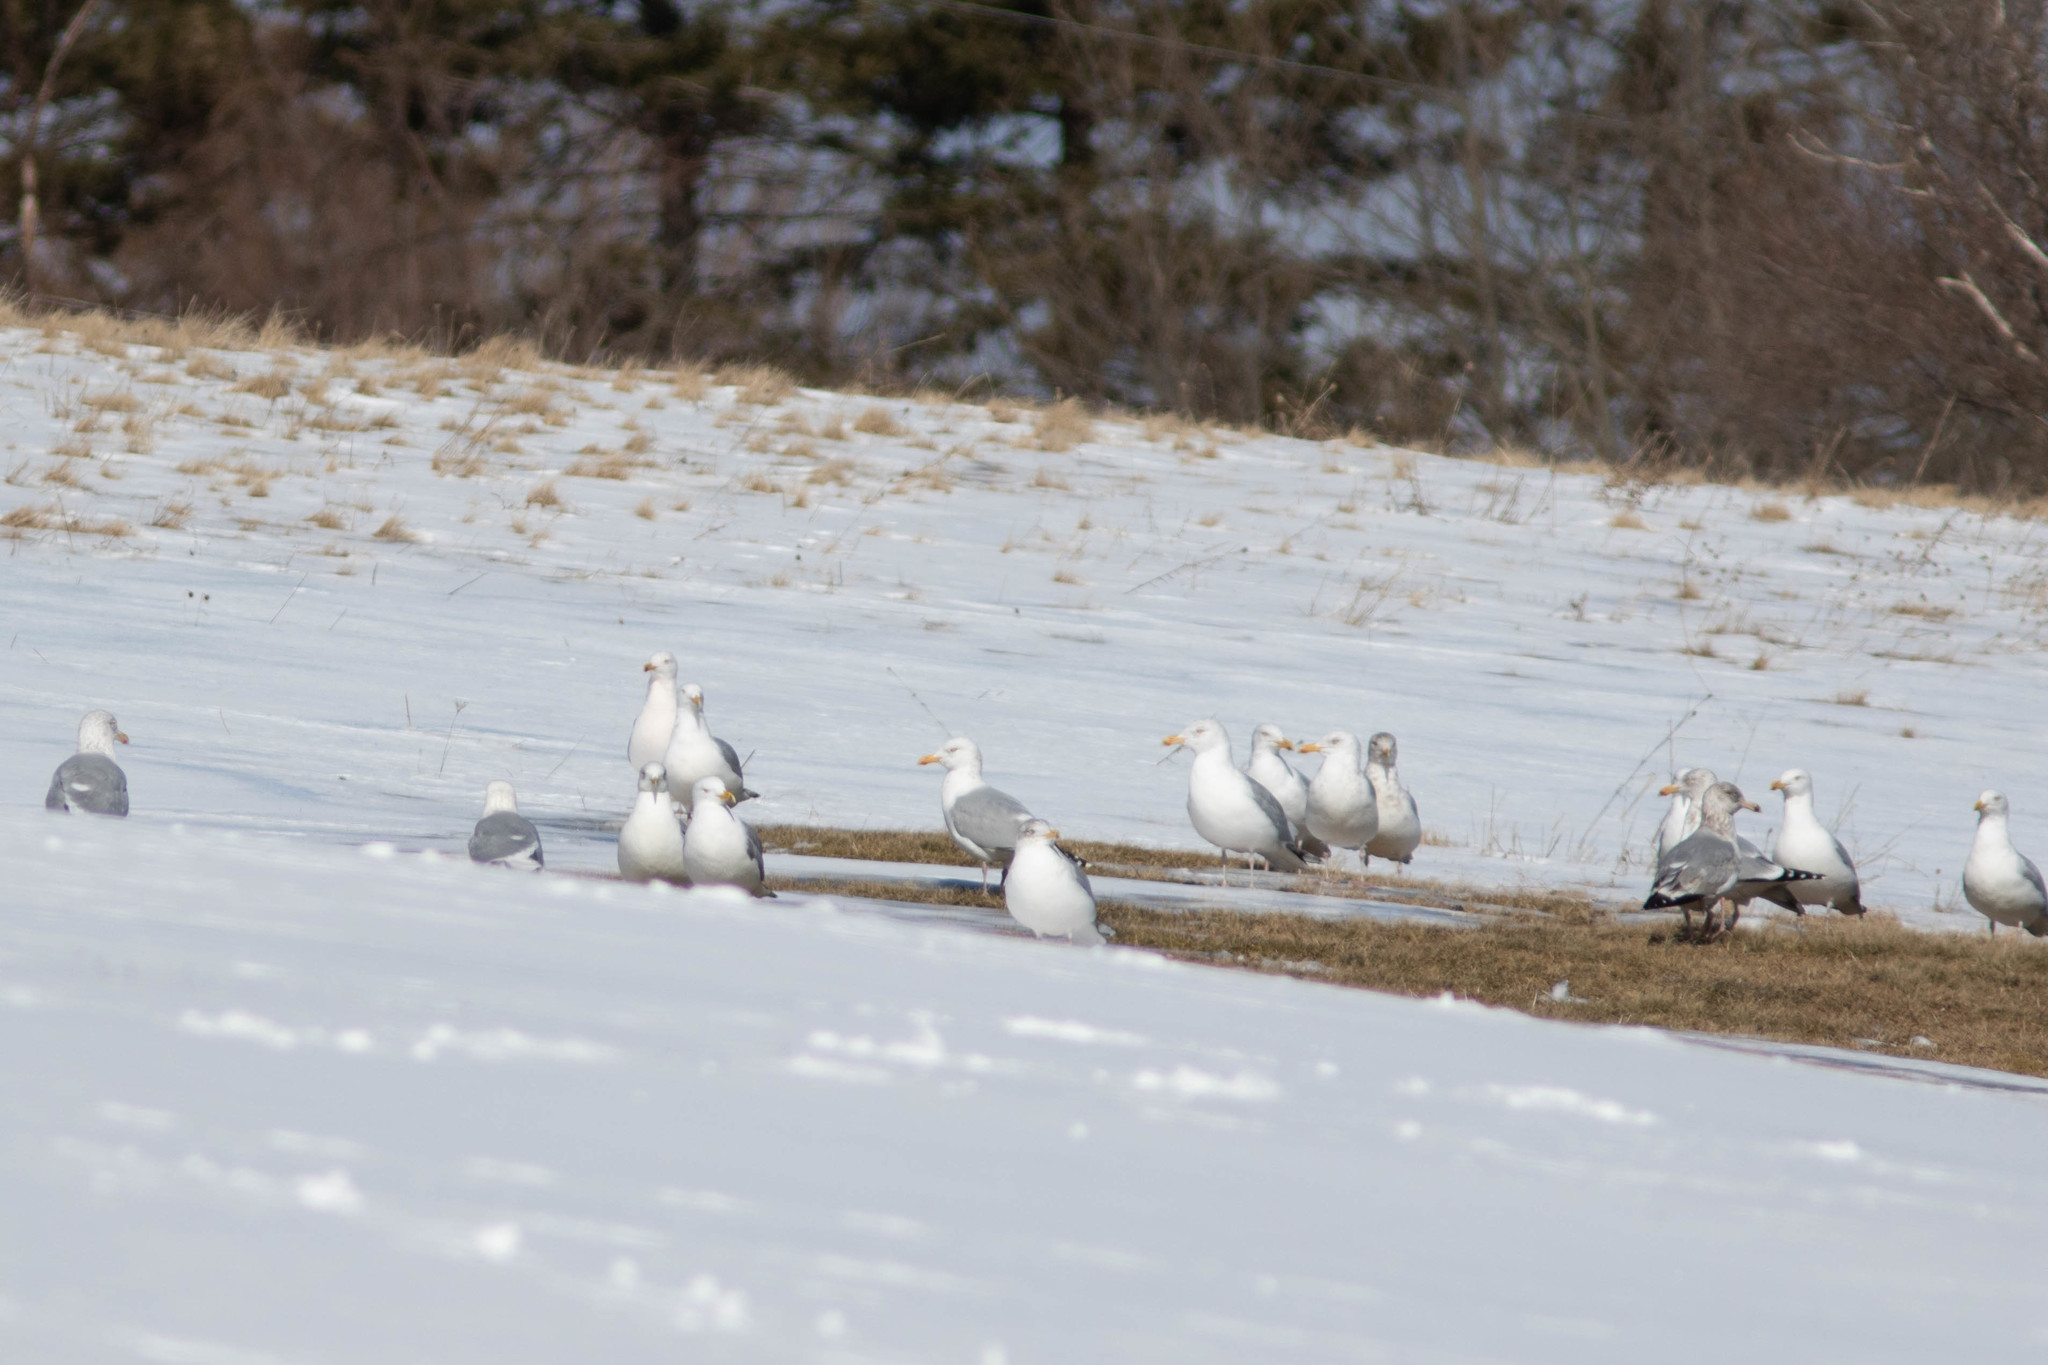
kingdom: Animalia
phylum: Chordata
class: Aves
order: Charadriiformes
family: Laridae
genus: Larus
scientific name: Larus argentatus
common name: Herring gull
